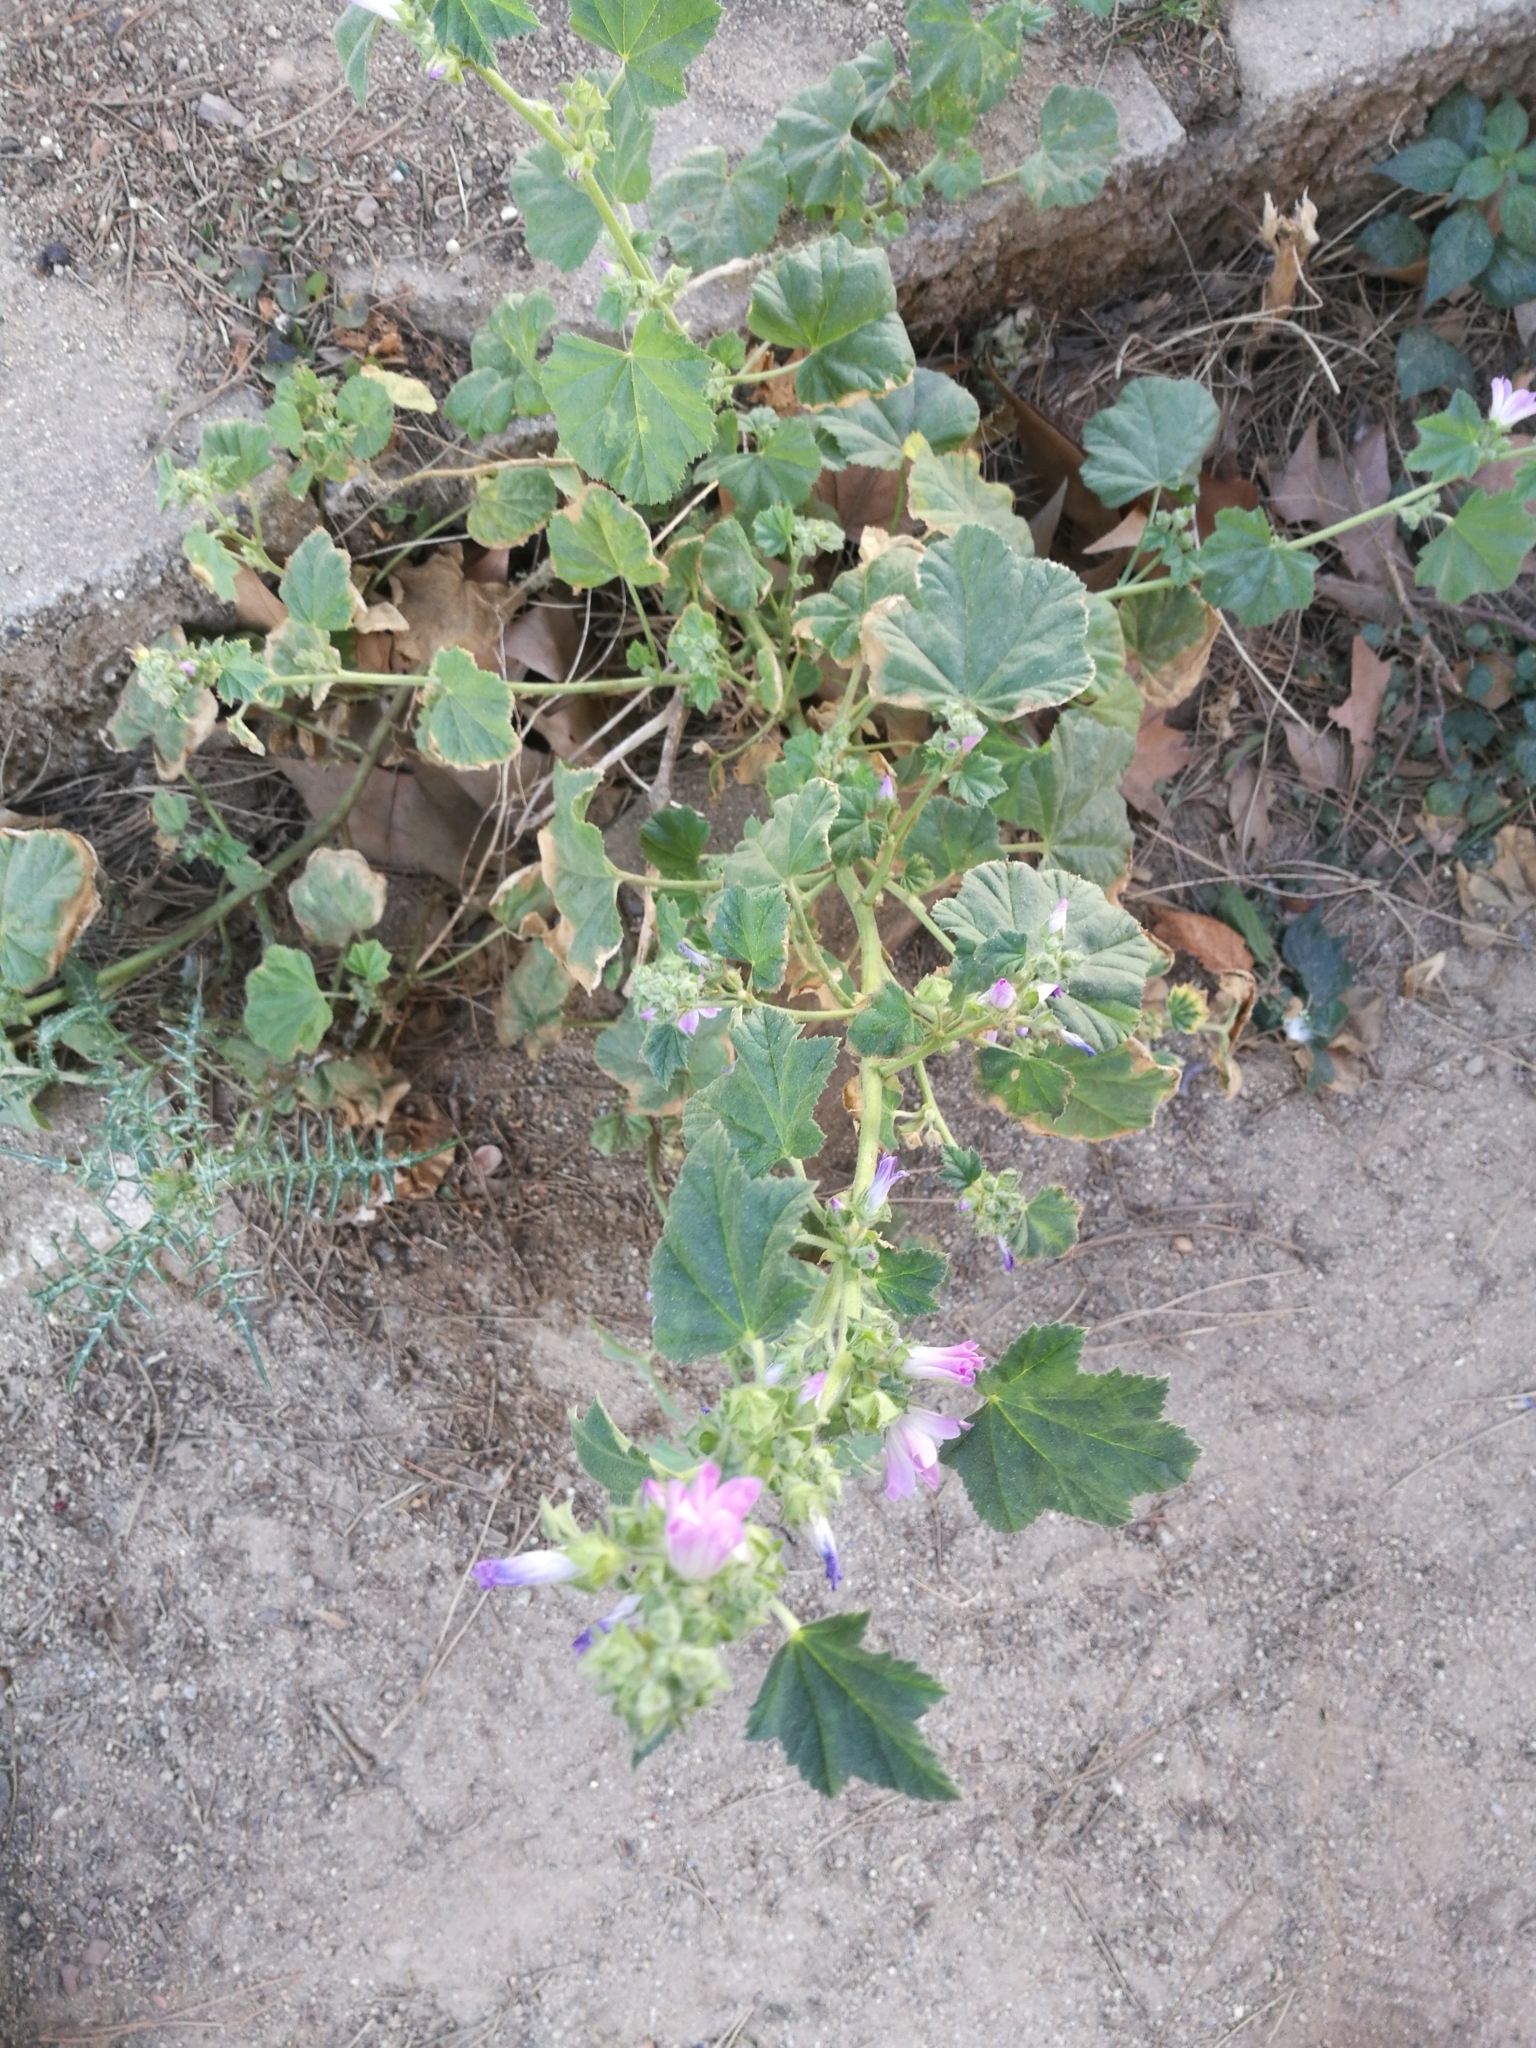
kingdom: Plantae
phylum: Tracheophyta
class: Magnoliopsida
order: Malvales
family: Malvaceae
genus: Malva
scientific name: Malva sylvestris
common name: Common mallow
